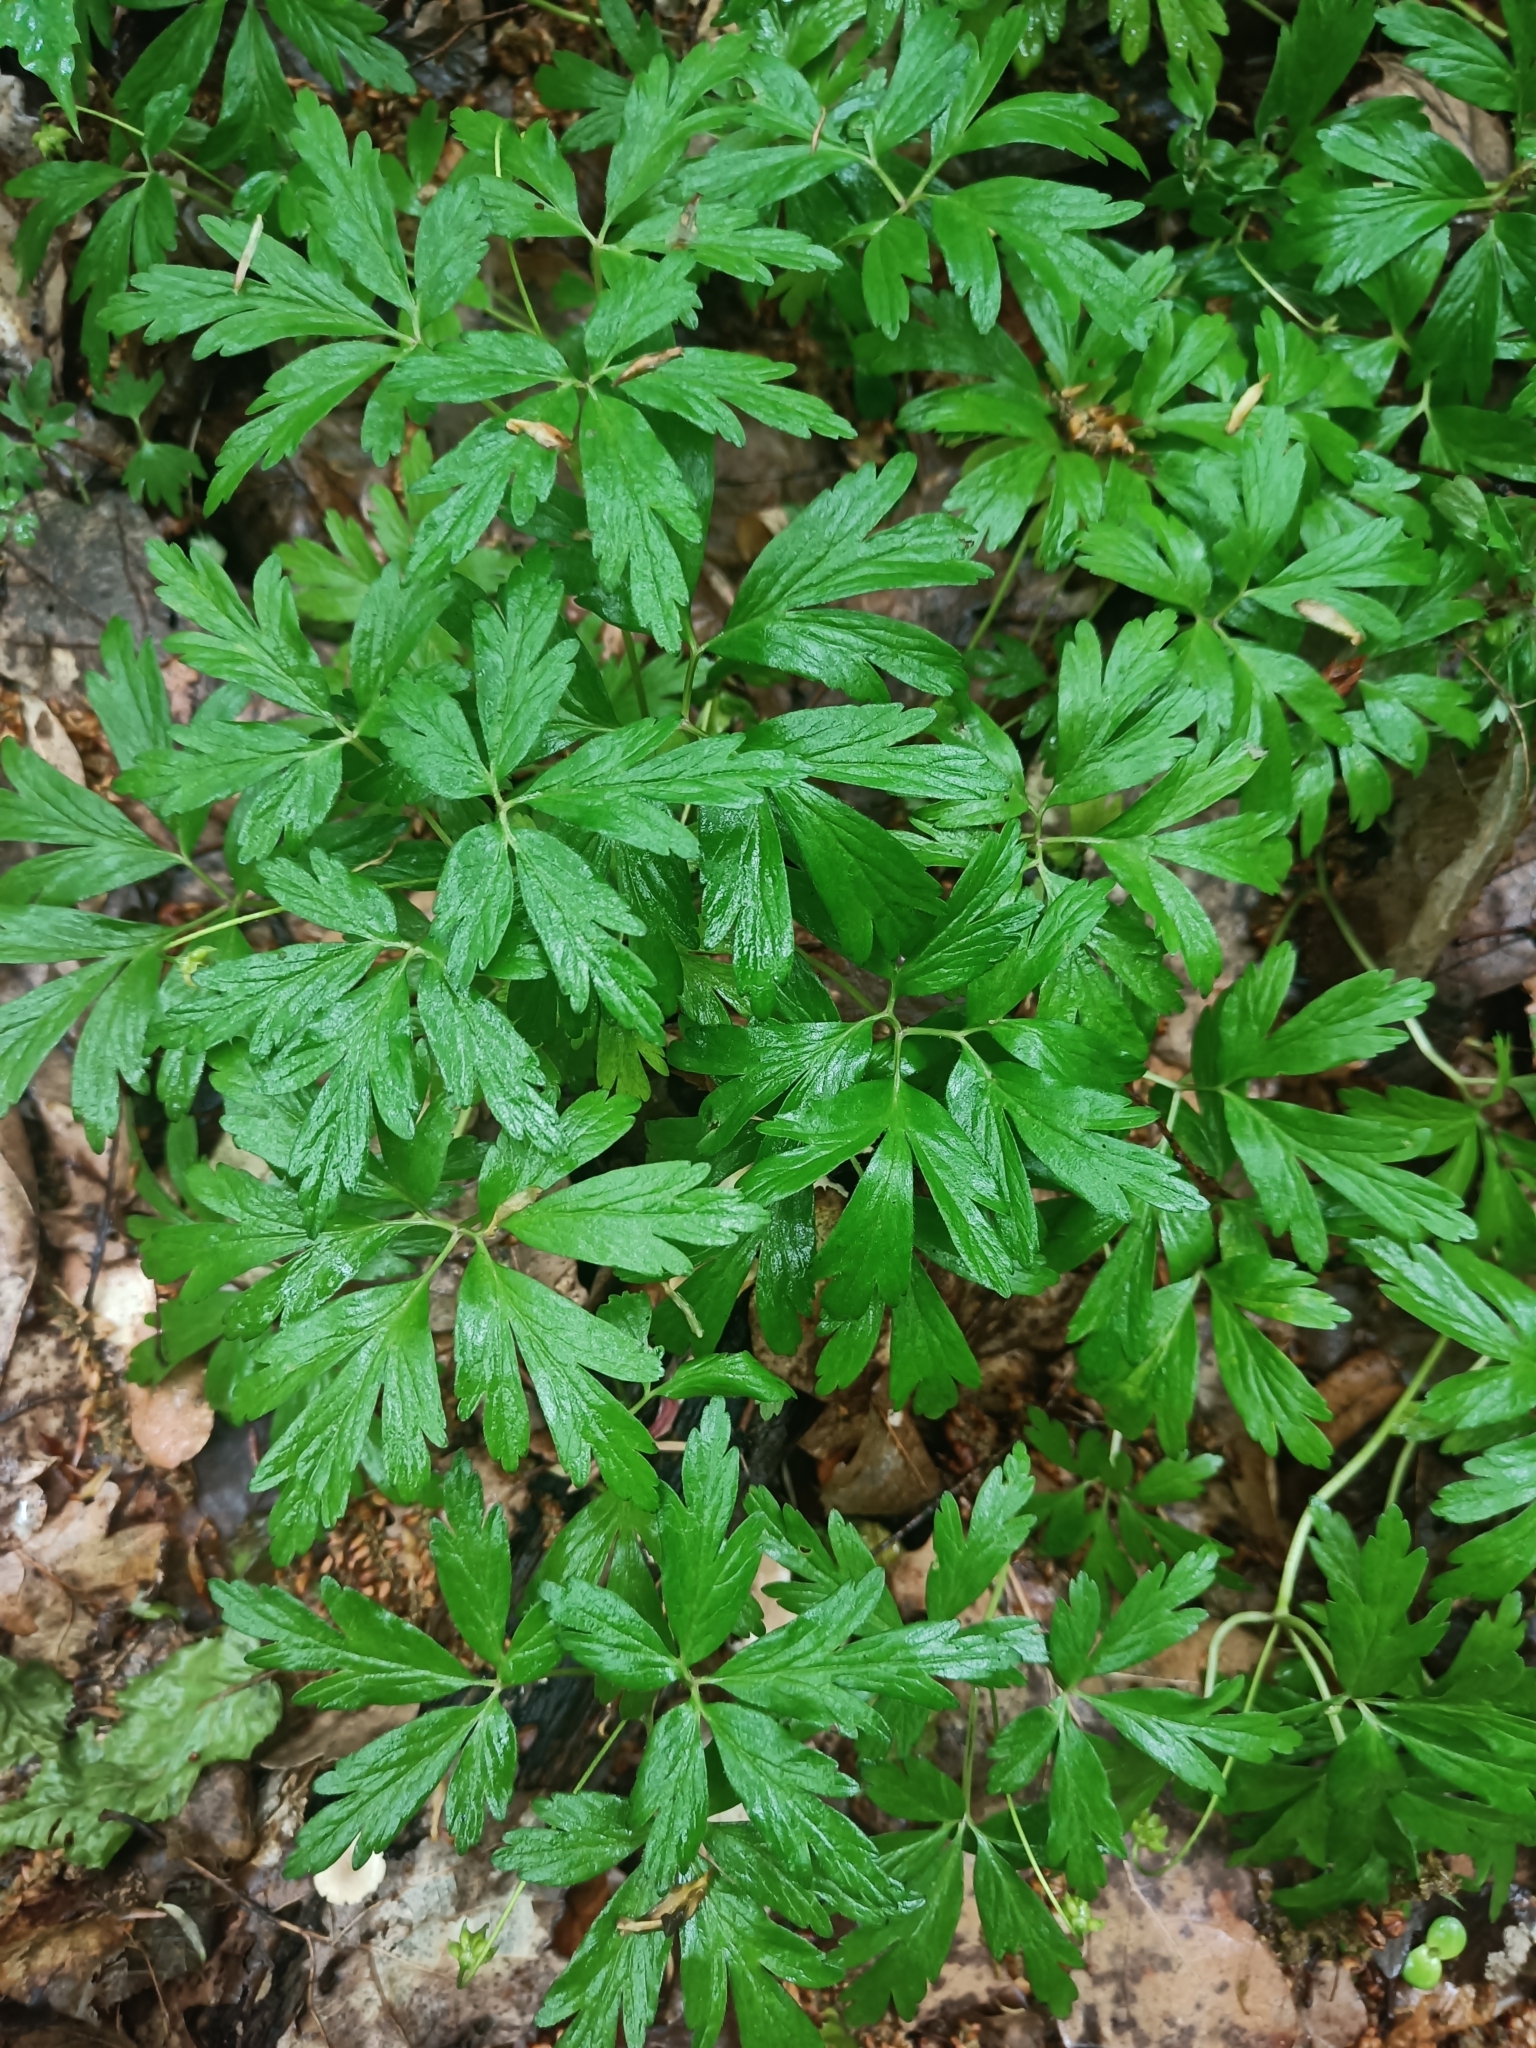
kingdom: Plantae
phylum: Tracheophyta
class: Magnoliopsida
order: Ranunculales
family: Ranunculaceae
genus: Anemone
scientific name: Anemone nemorosa
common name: Wood anemone
